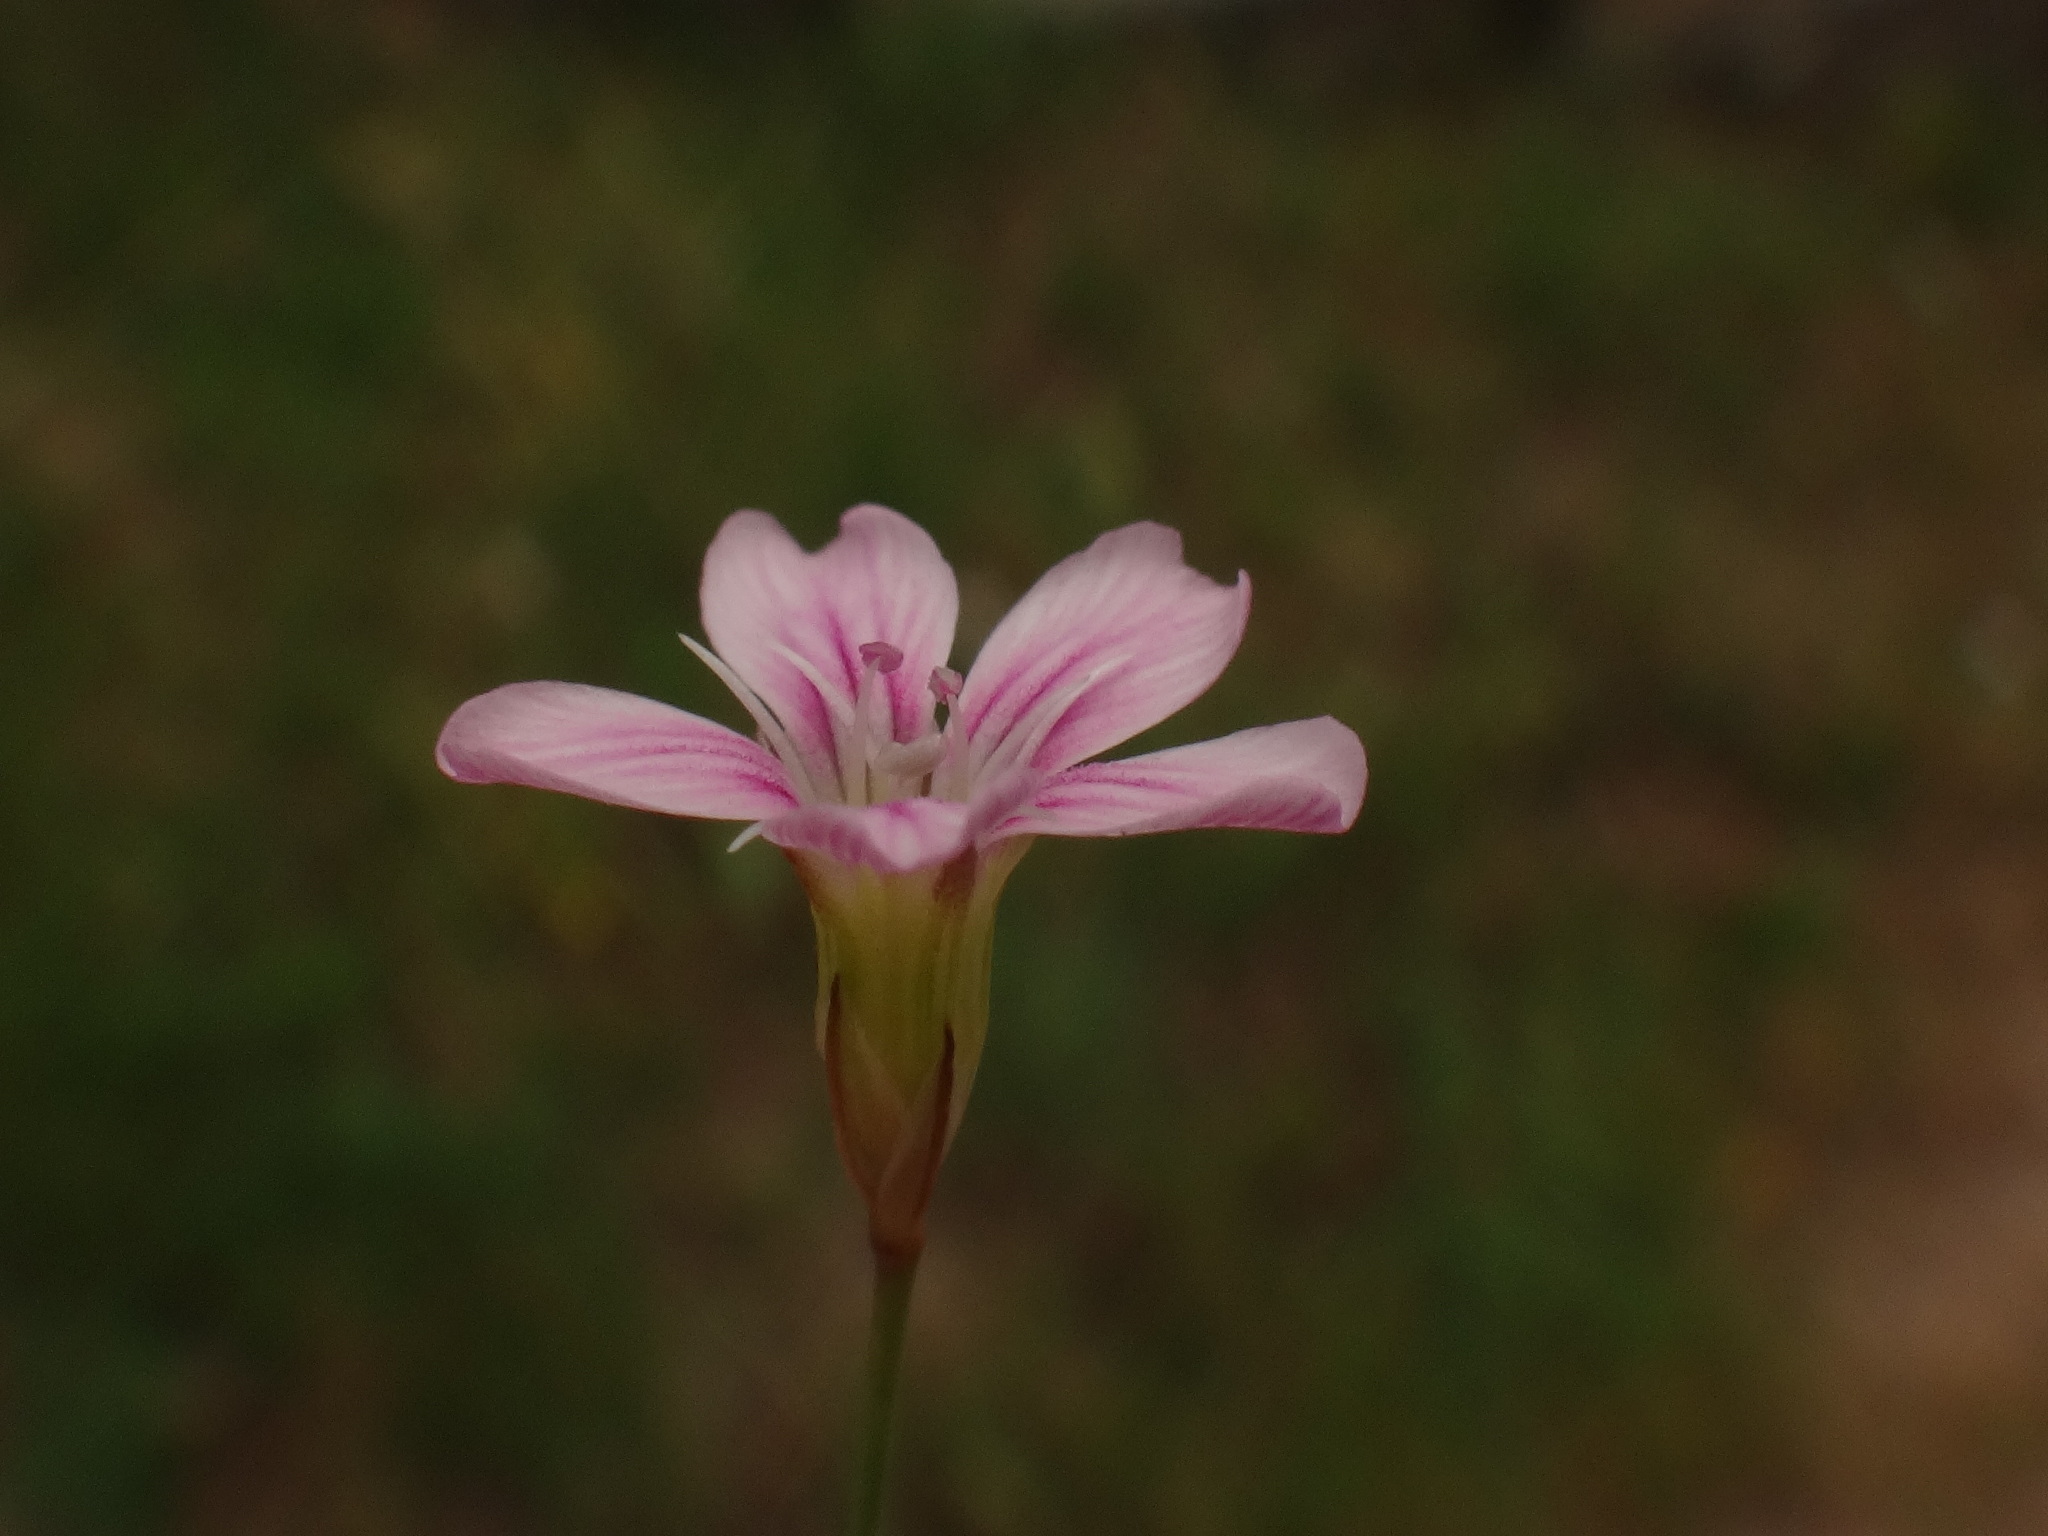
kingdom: Plantae
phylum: Tracheophyta
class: Magnoliopsida
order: Caryophyllales
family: Caryophyllaceae
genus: Petrorhagia
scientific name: Petrorhagia saxifraga
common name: Tunicflower
